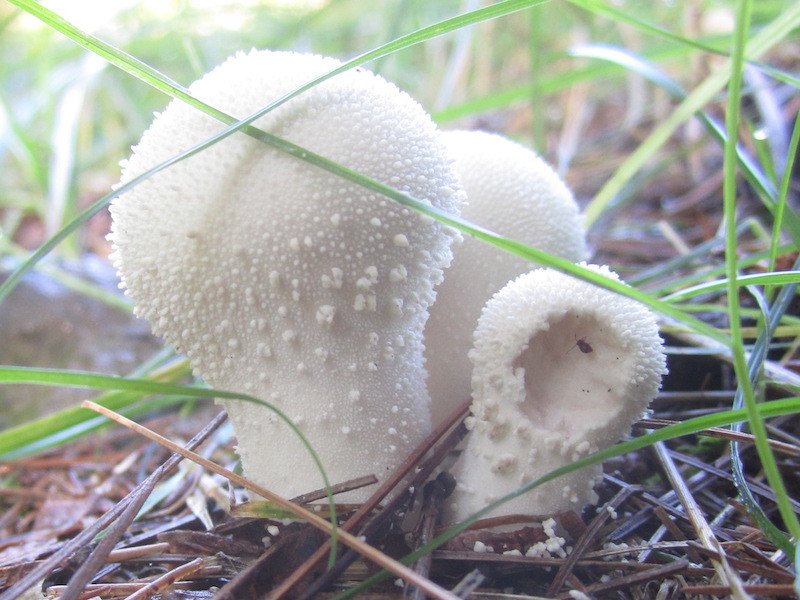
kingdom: Fungi
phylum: Basidiomycota
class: Agaricomycetes
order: Agaricales
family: Lycoperdaceae
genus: Lycoperdon
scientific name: Lycoperdon perlatum
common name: Common puffball
